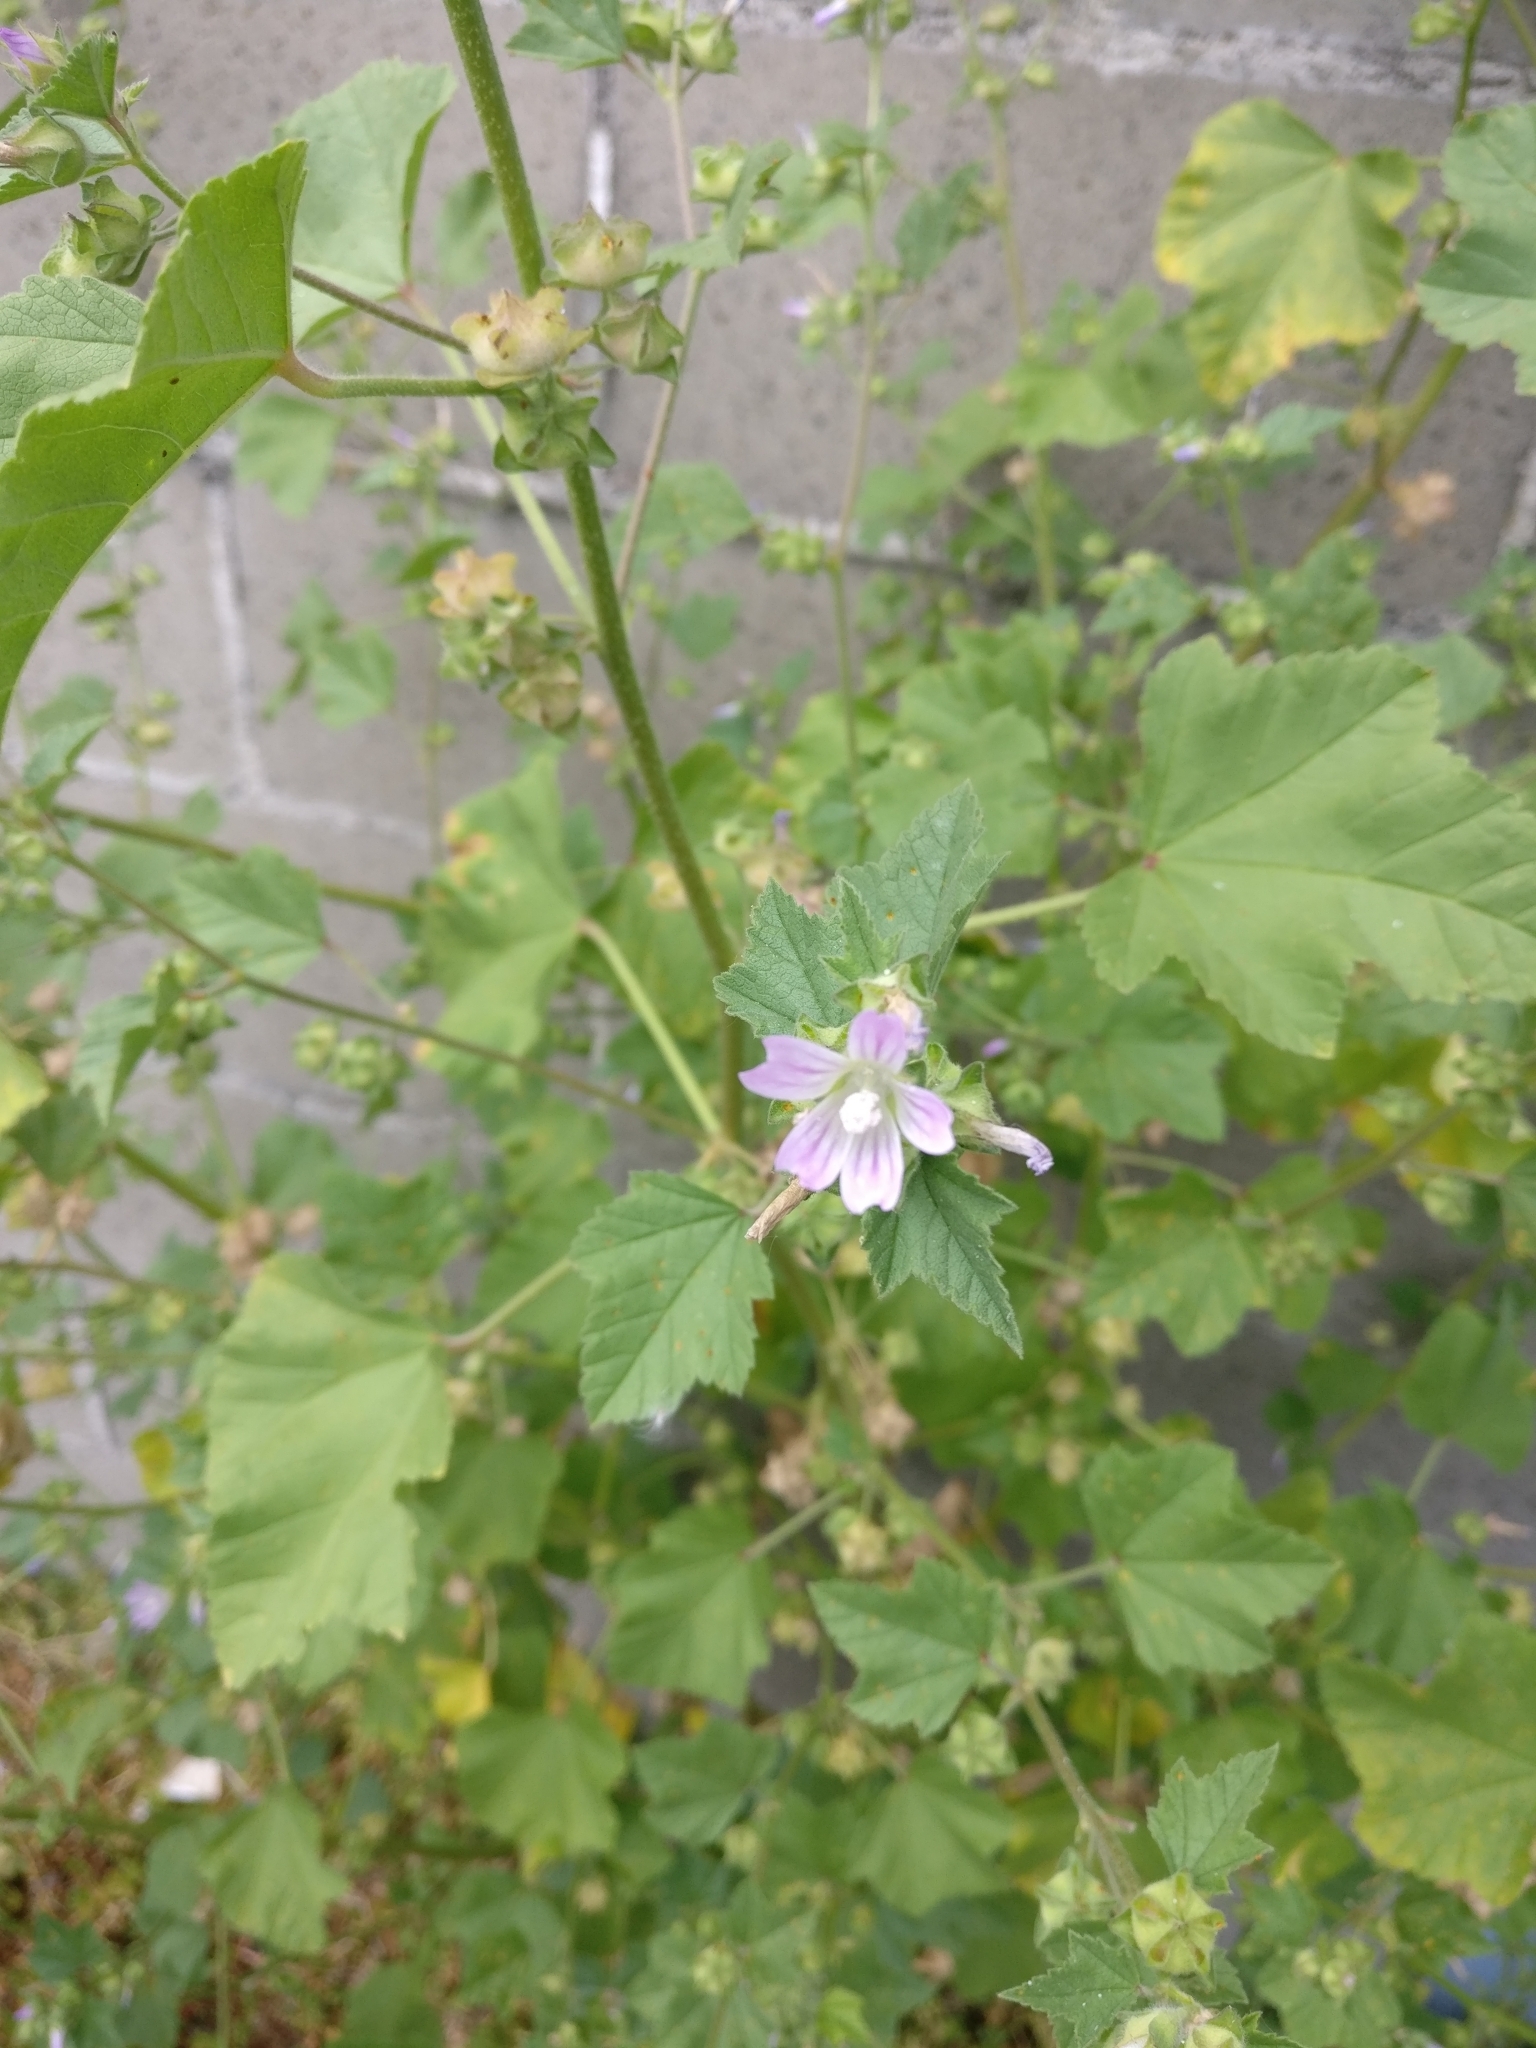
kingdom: Plantae
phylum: Tracheophyta
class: Magnoliopsida
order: Malvales
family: Malvaceae
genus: Malva
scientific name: Malva multiflora
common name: Cheeseweed
